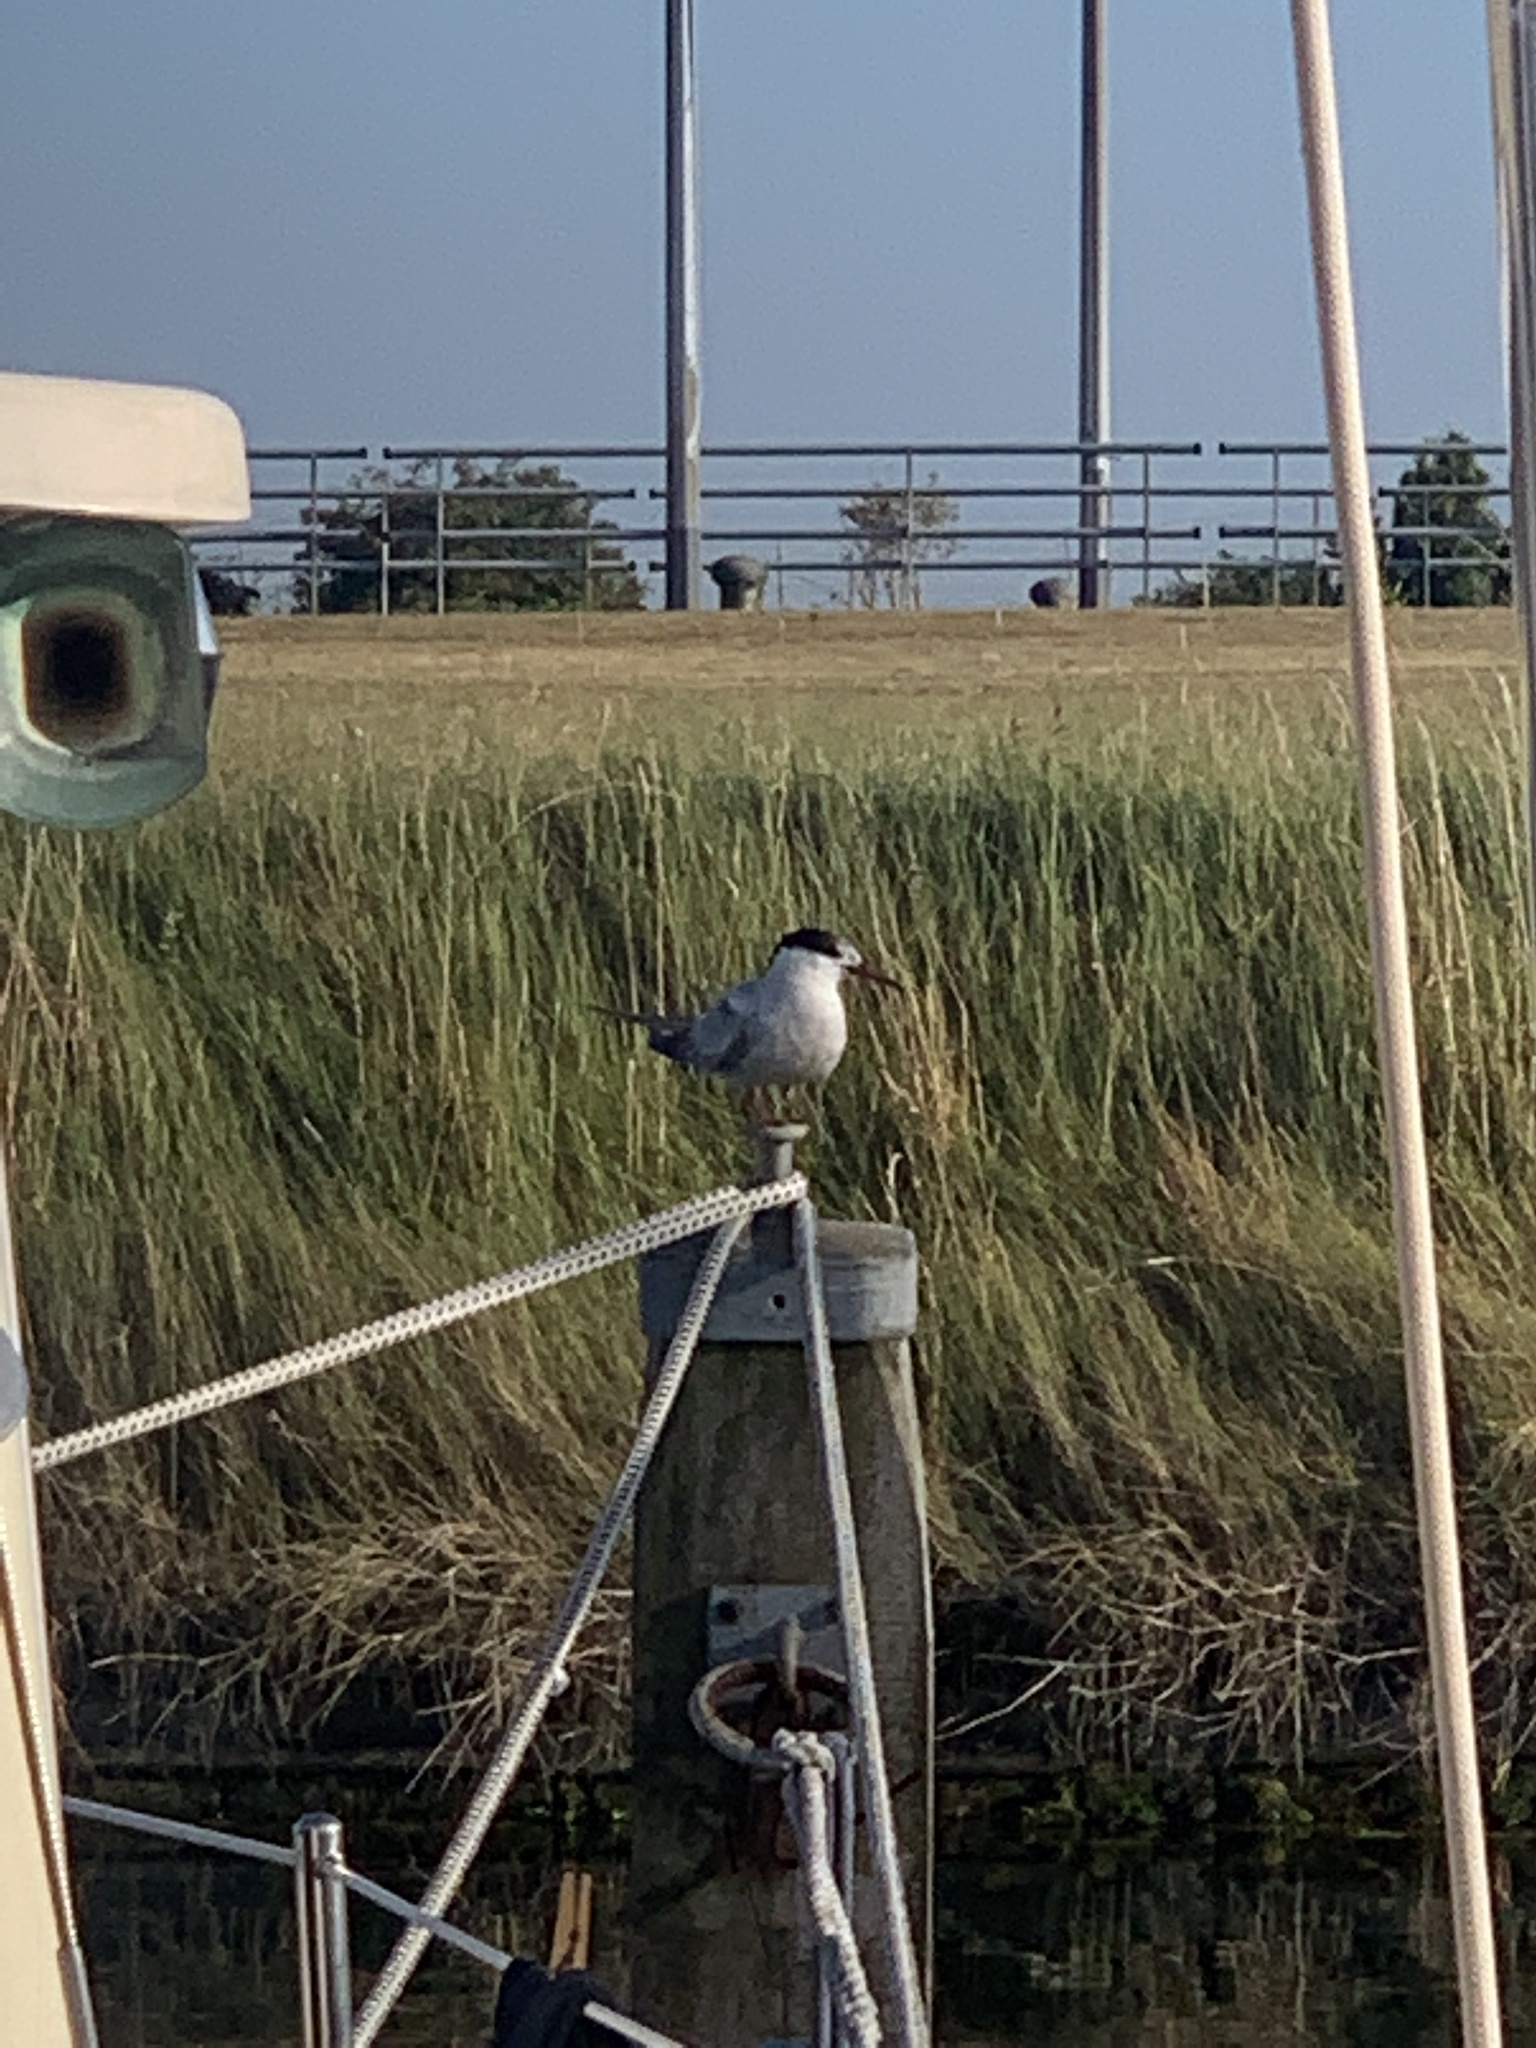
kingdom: Animalia
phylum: Chordata
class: Aves
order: Charadriiformes
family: Laridae
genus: Sterna
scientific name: Sterna hirundo
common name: Common tern
